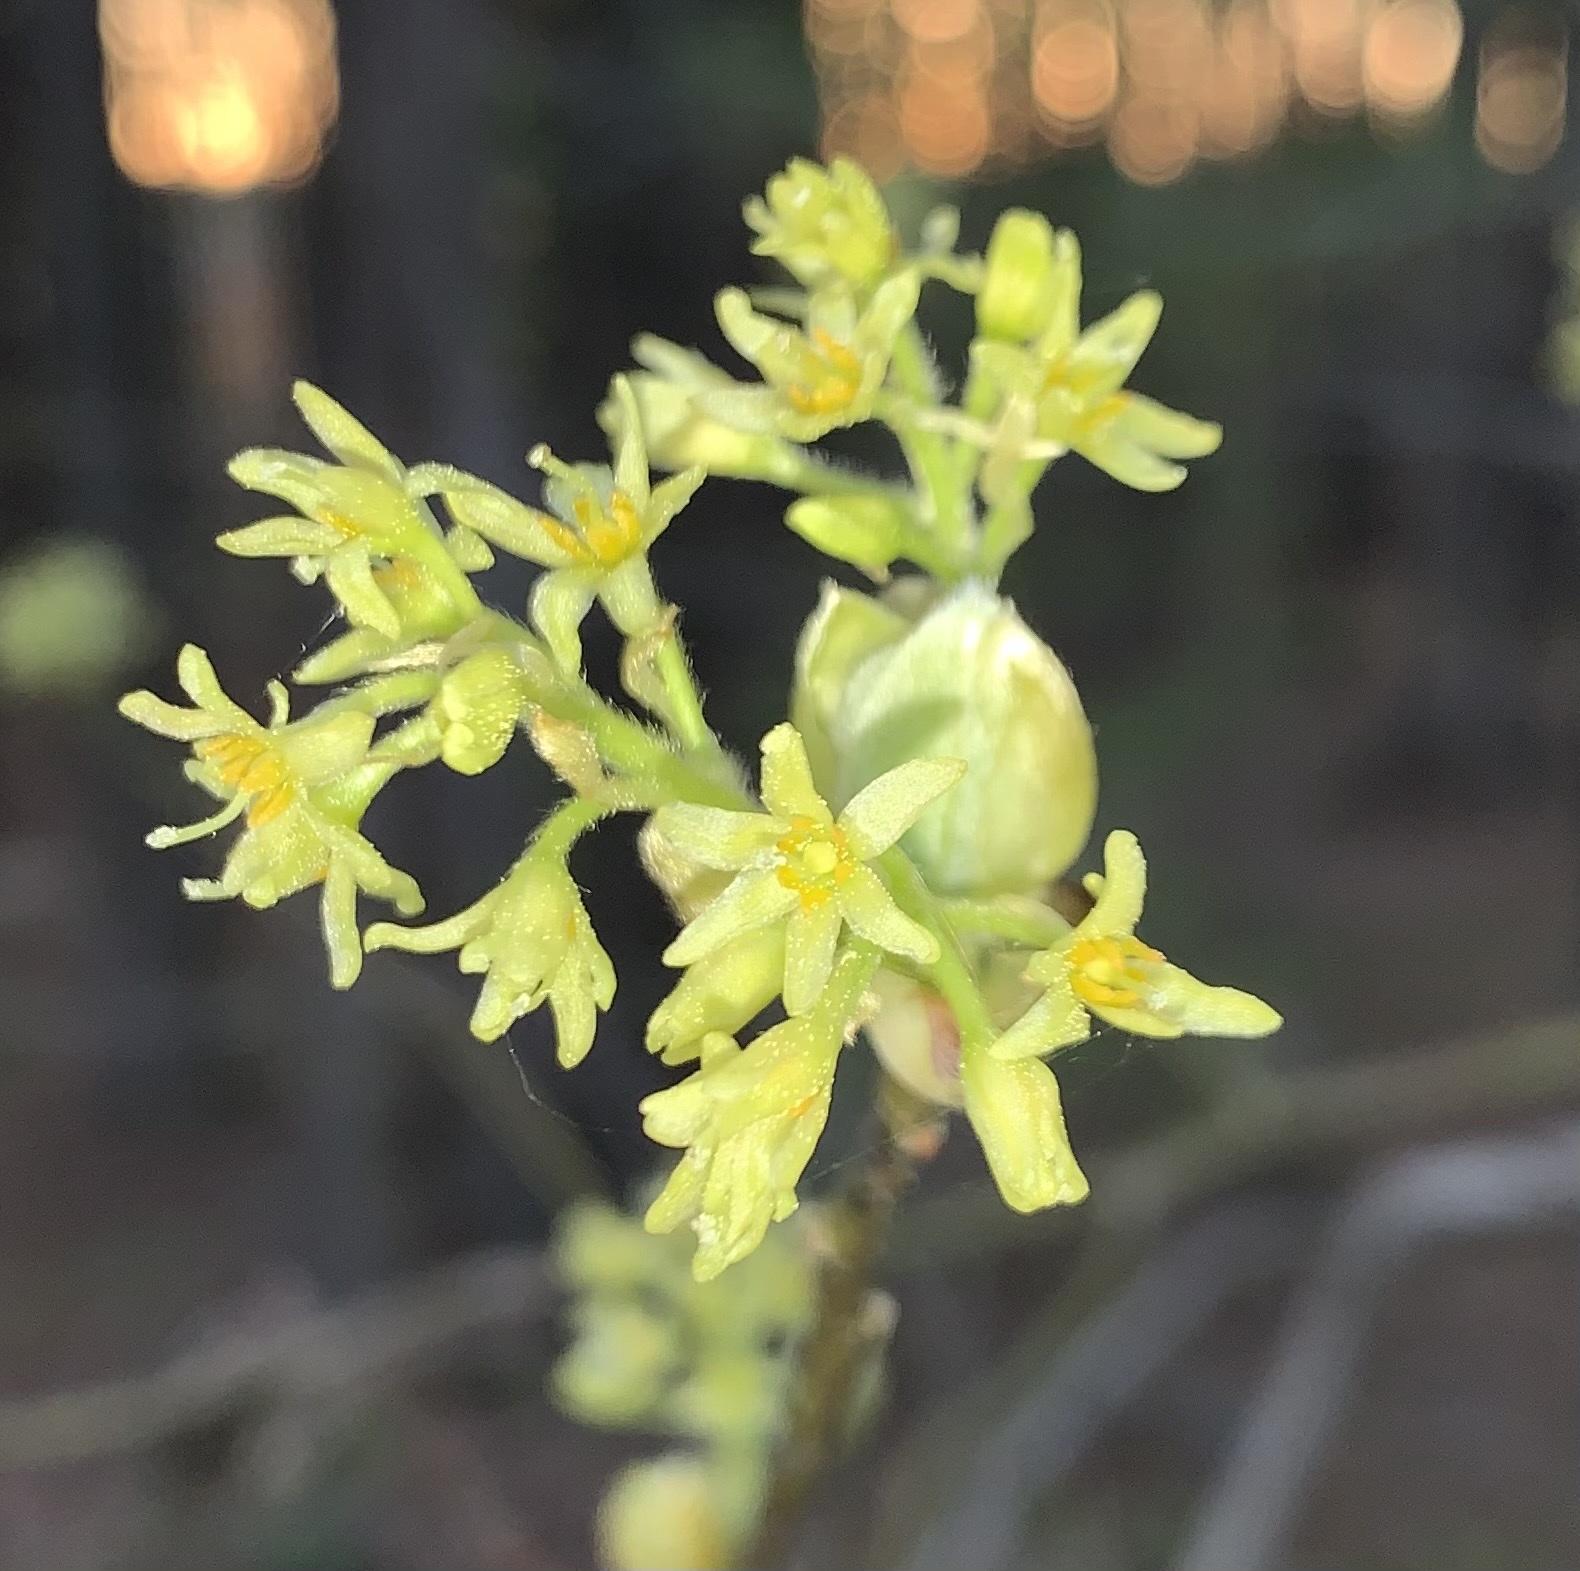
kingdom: Plantae
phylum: Tracheophyta
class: Magnoliopsida
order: Laurales
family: Lauraceae
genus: Sassafras
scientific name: Sassafras albidum
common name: Sassafras
